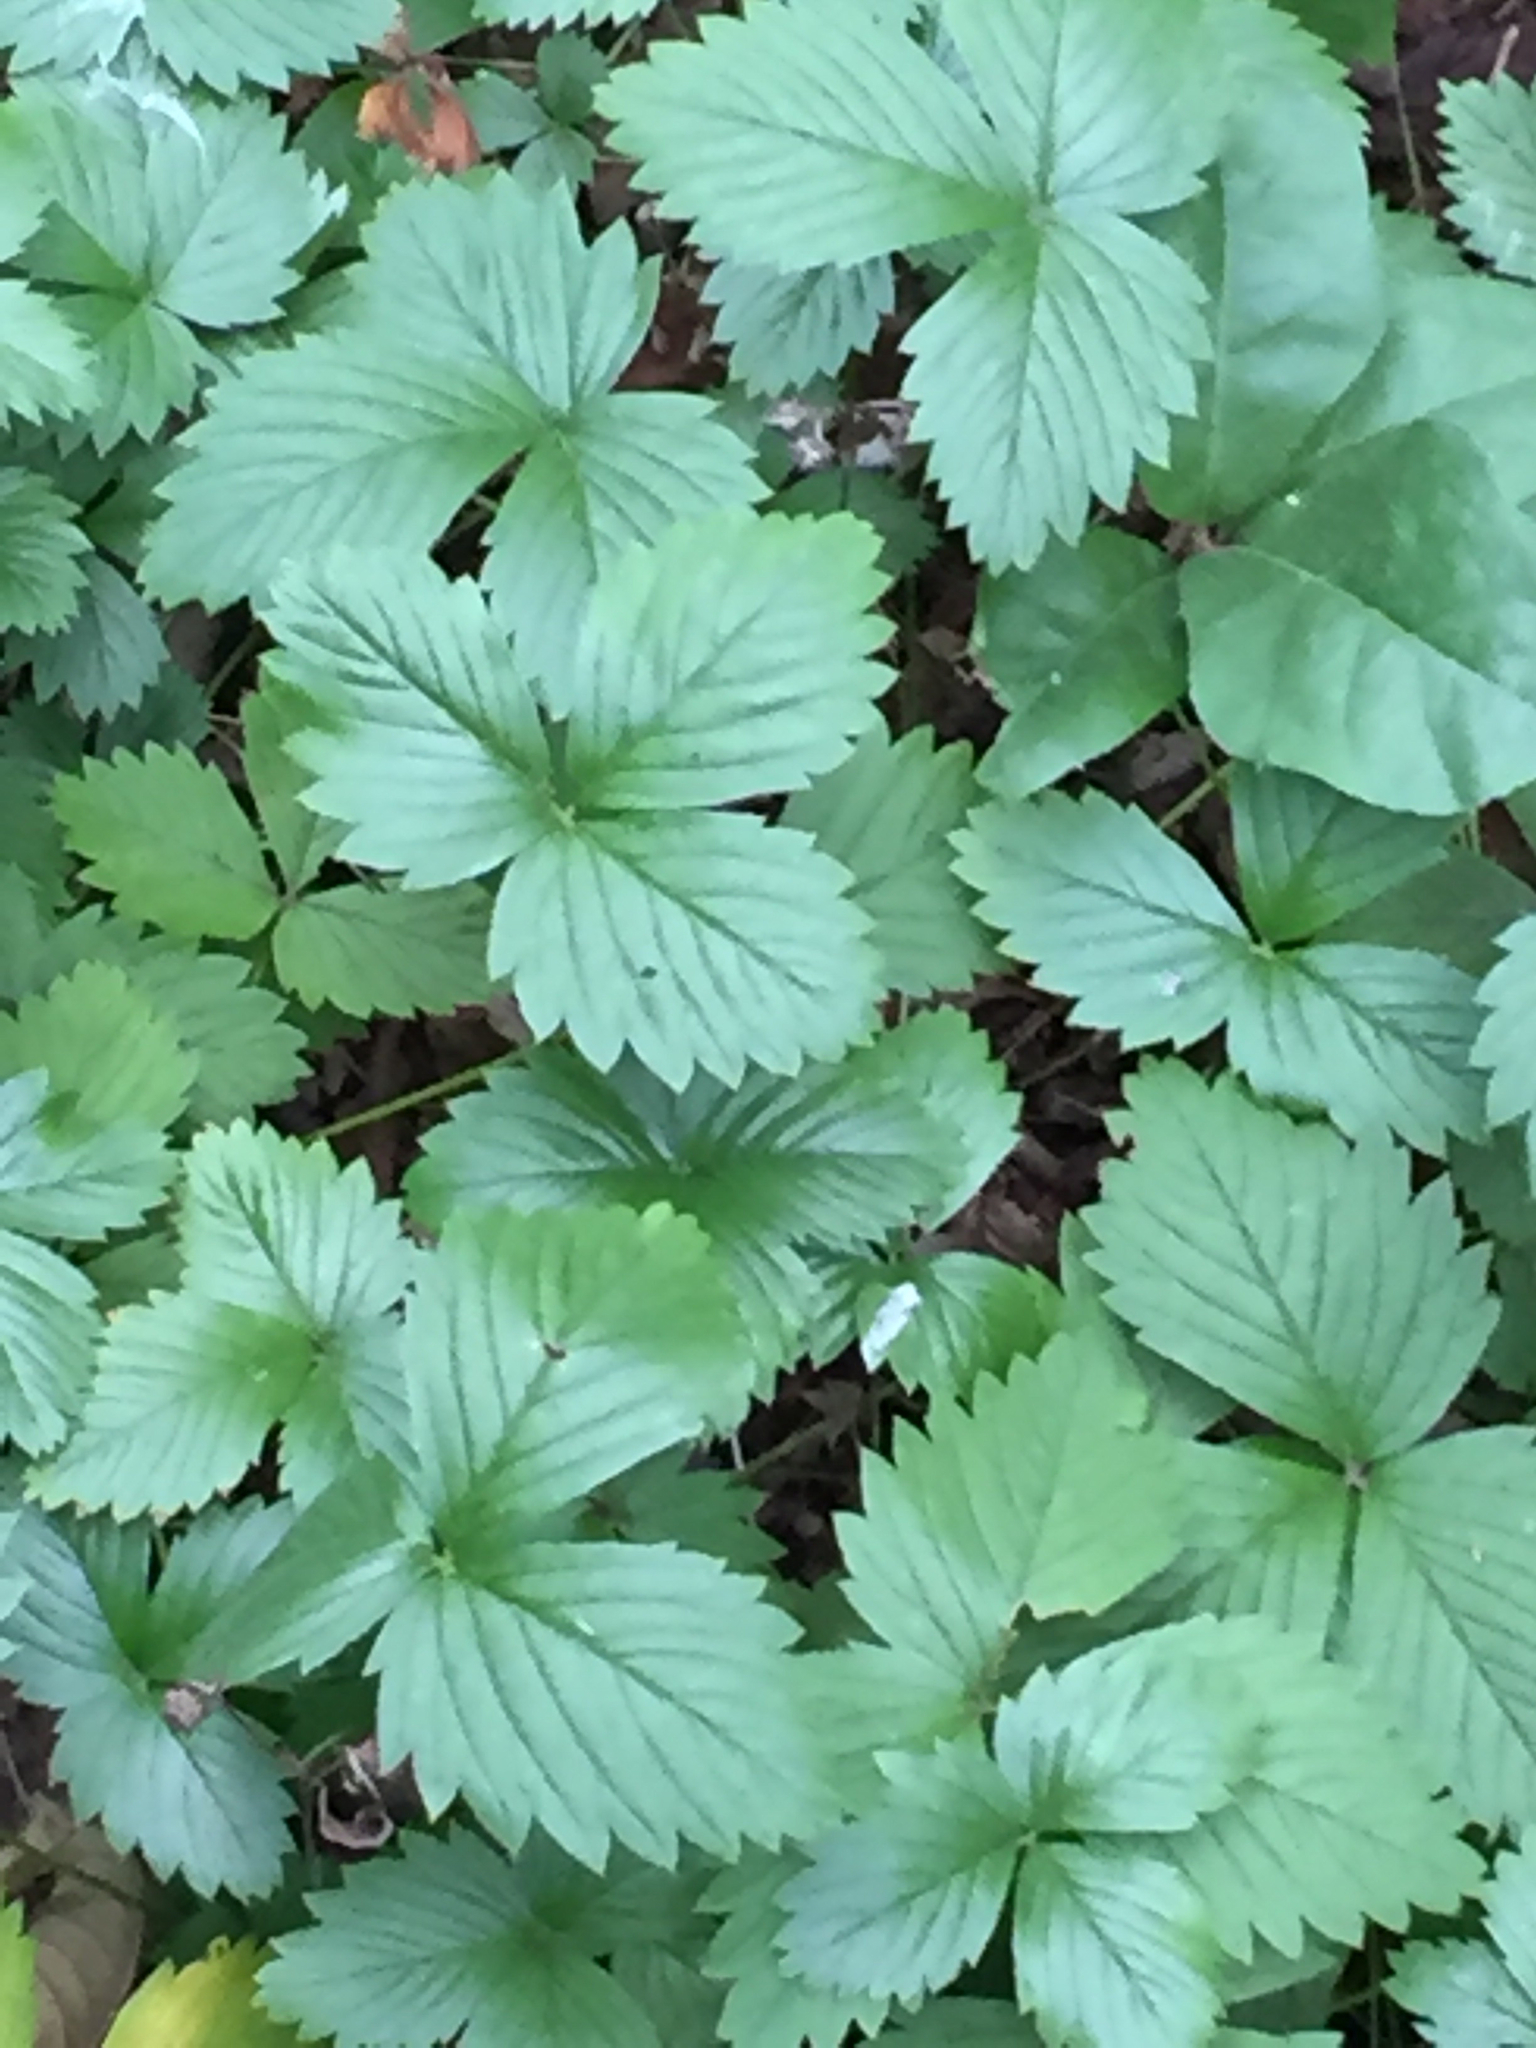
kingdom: Plantae
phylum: Tracheophyta
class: Magnoliopsida
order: Rosales
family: Rosaceae
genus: Fragaria
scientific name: Fragaria vesca
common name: Wild strawberry
